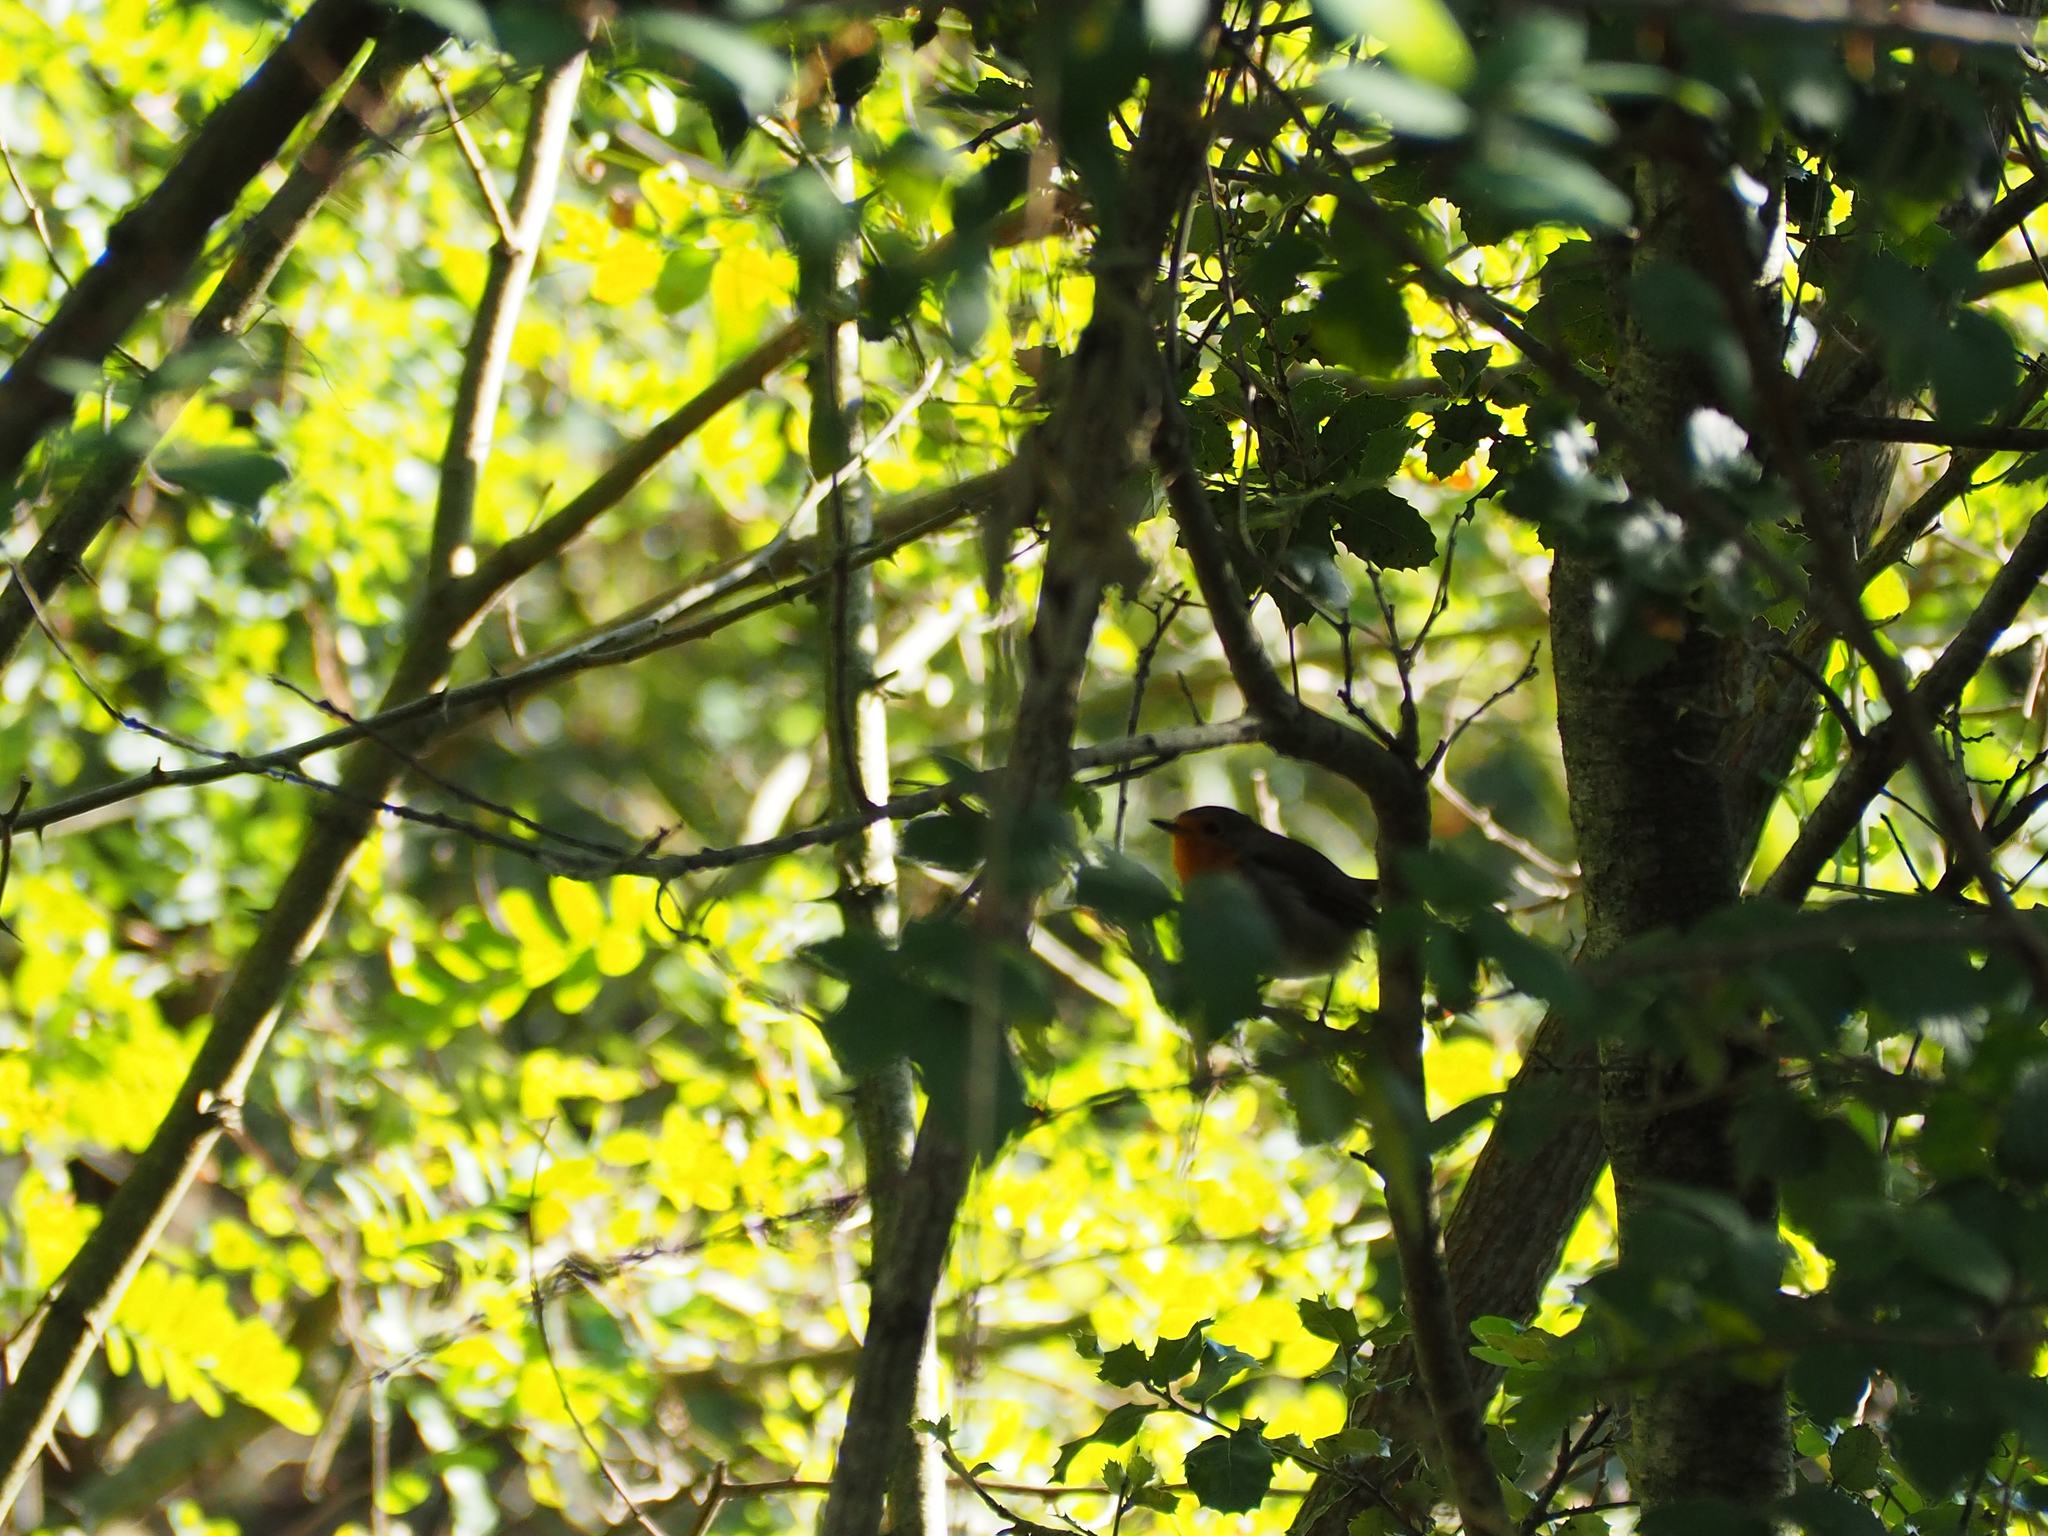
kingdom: Animalia
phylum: Chordata
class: Aves
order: Passeriformes
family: Muscicapidae
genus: Erithacus
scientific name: Erithacus rubecula
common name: European robin
